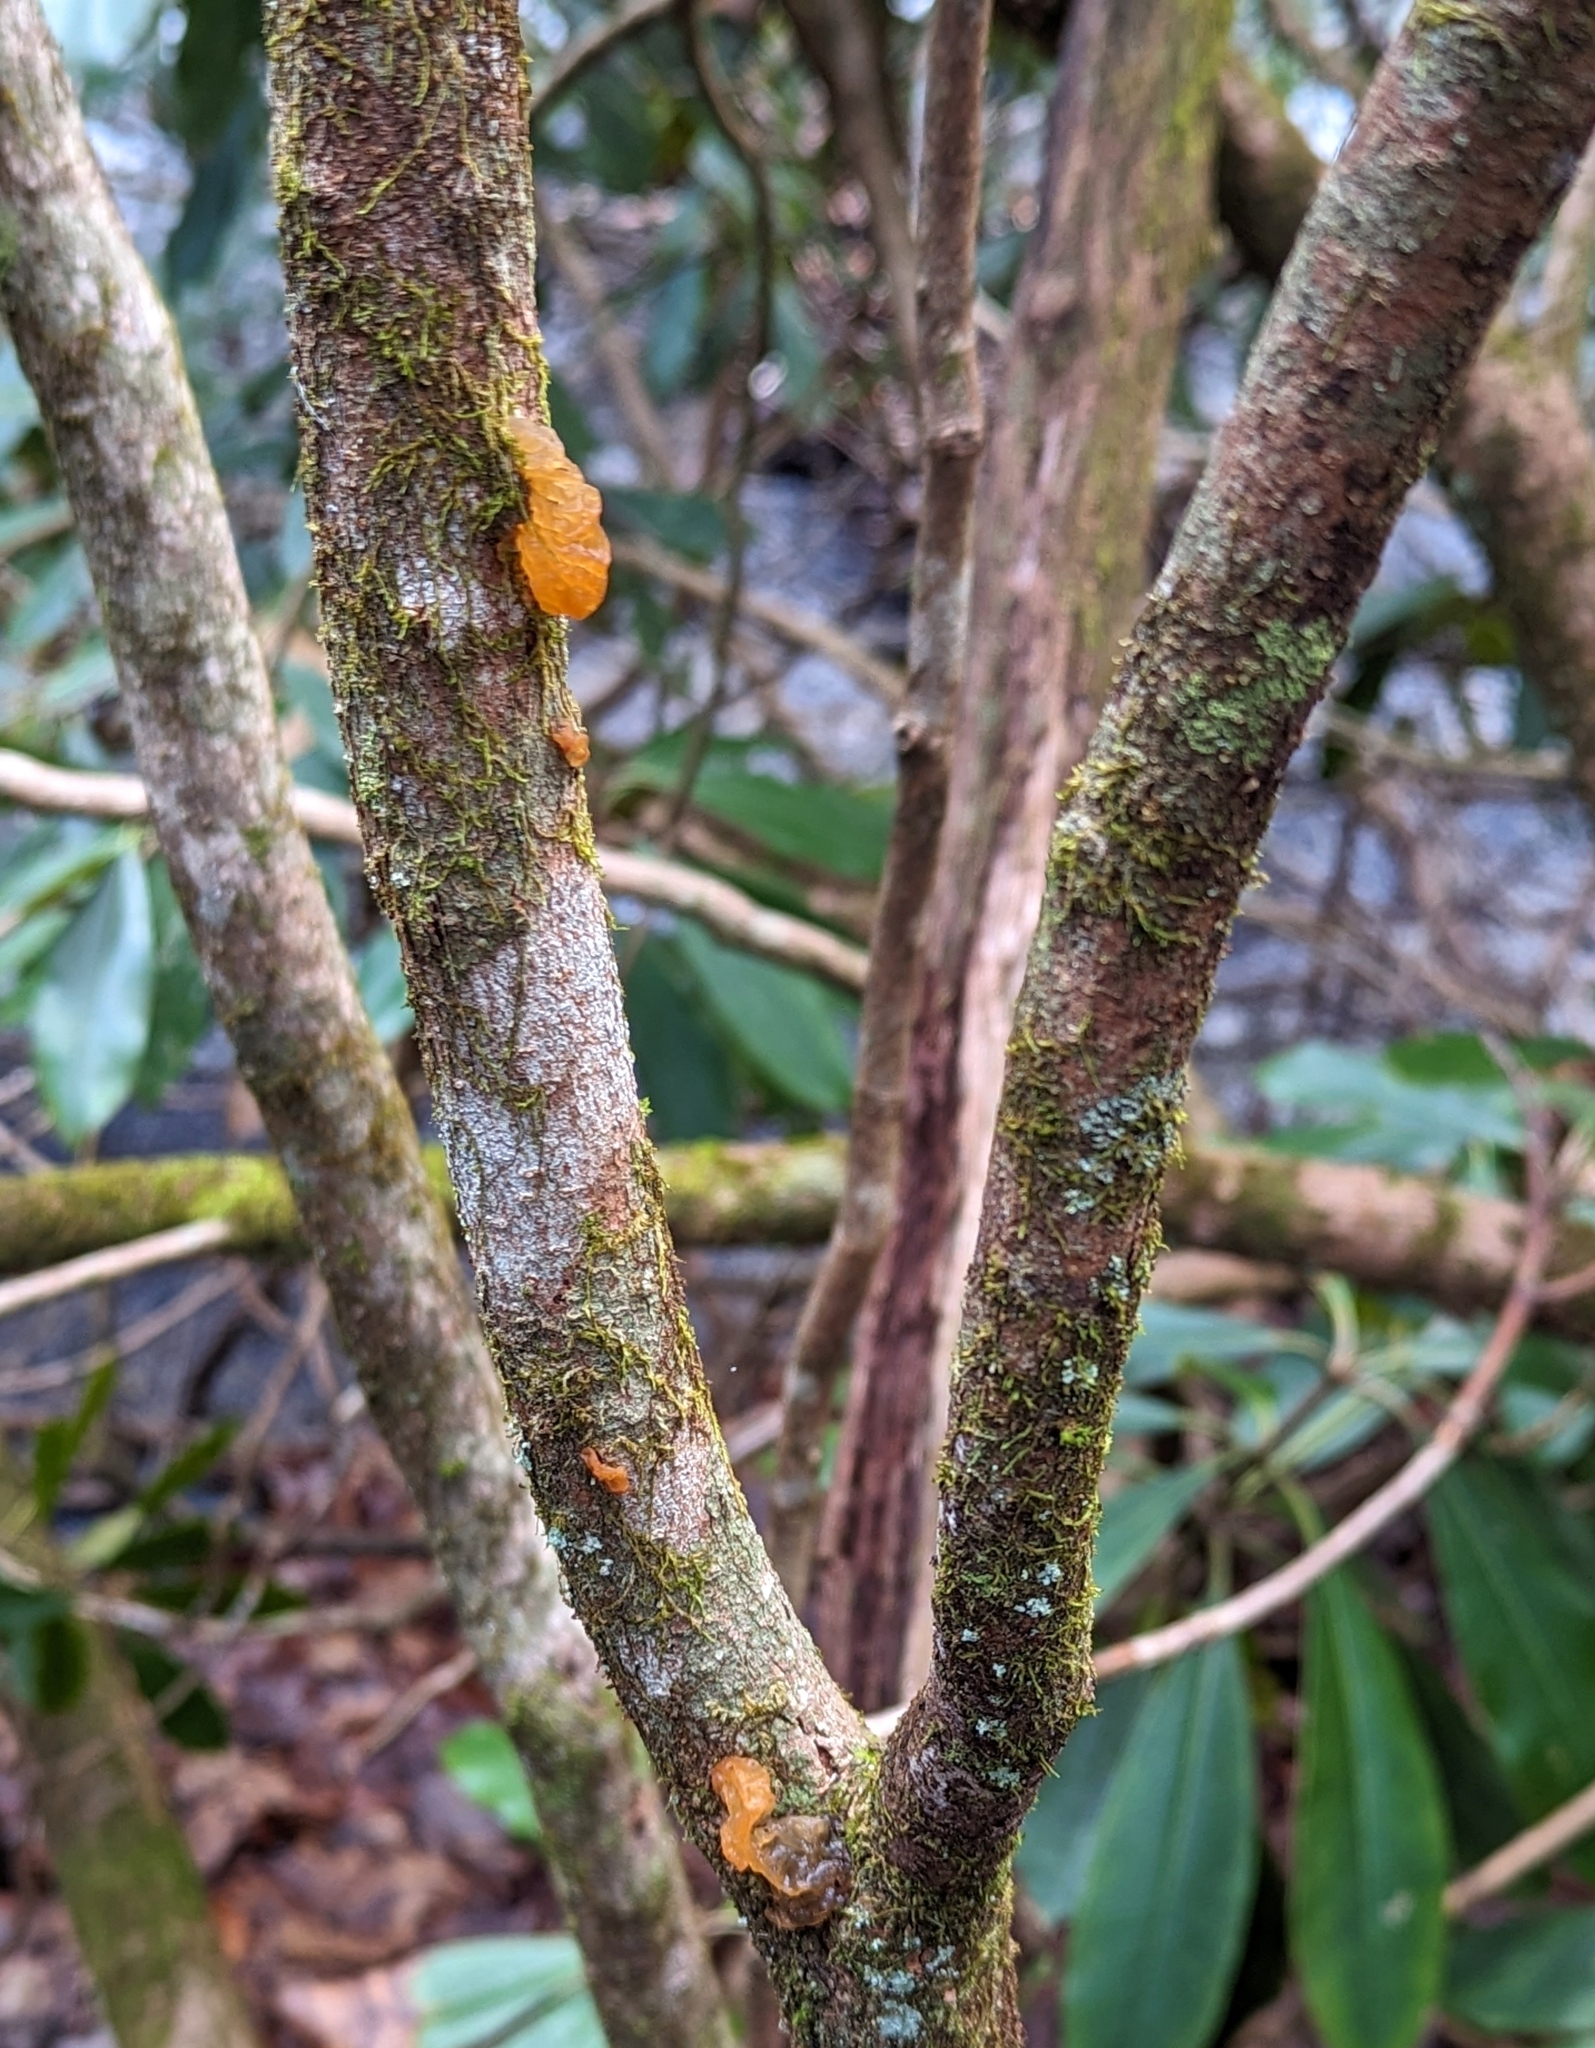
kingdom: Fungi
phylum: Basidiomycota
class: Tremellomycetes
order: Tremellales
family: Tremellaceae
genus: Tremella
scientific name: Tremella mesenterica
